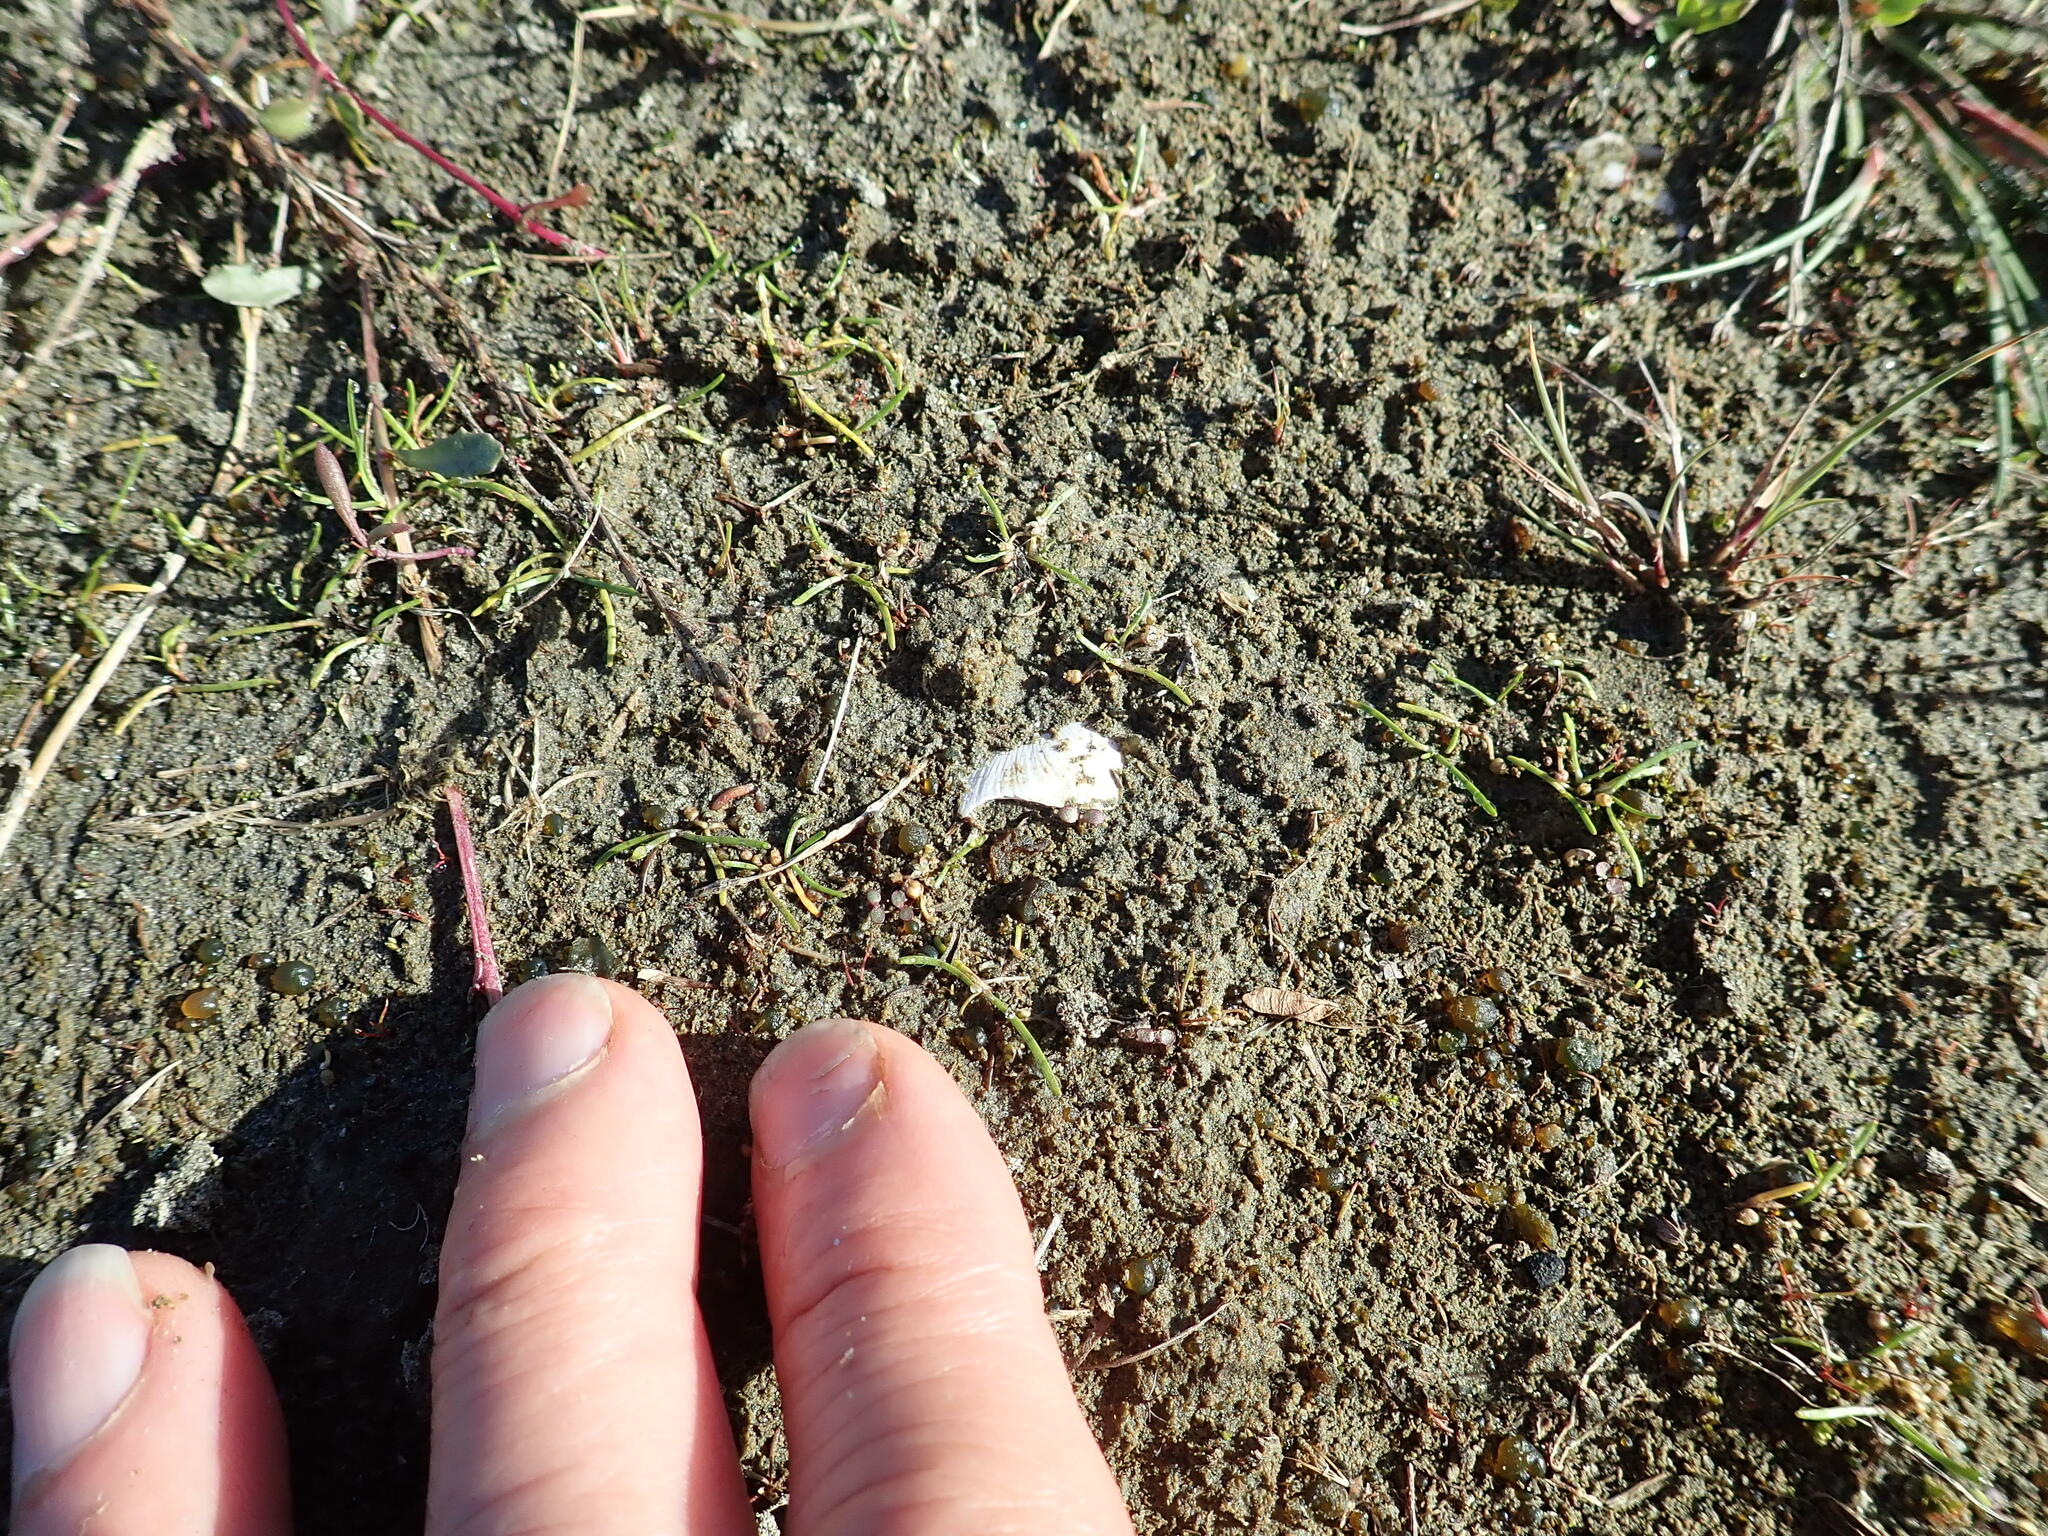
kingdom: Plantae
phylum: Tracheophyta
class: Magnoliopsida
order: Apiales
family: Apiaceae
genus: Lilaeopsis
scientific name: Lilaeopsis novae-zelandiae
